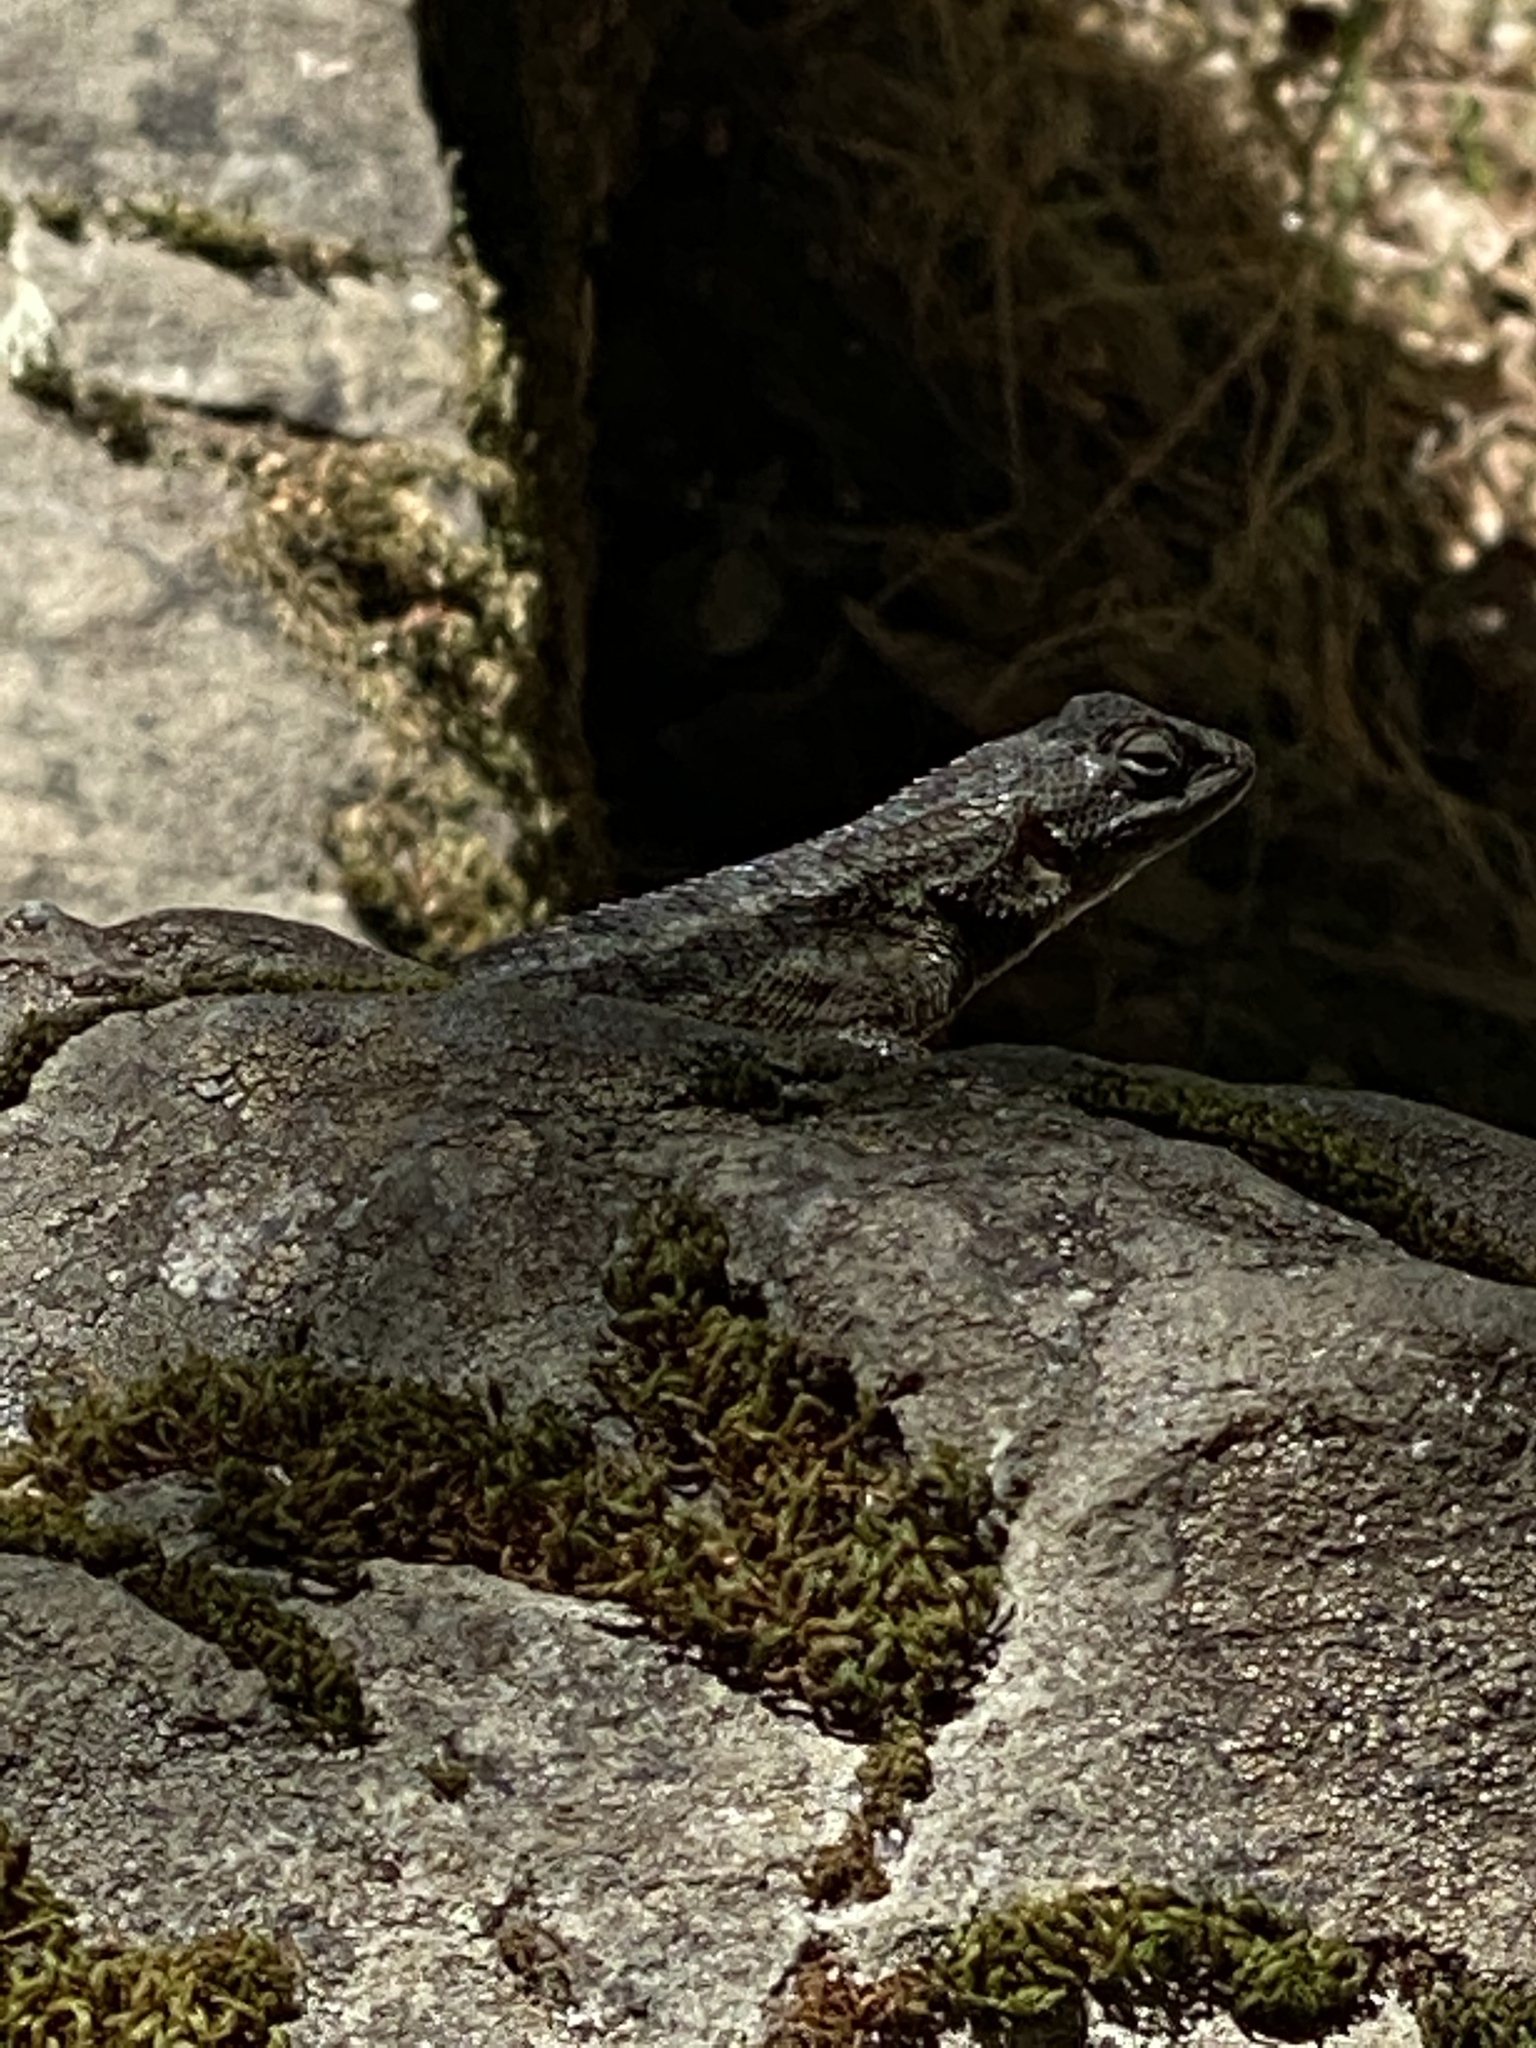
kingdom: Animalia
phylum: Chordata
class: Squamata
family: Phrynosomatidae
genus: Sceloporus
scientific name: Sceloporus occidentalis
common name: Western fence lizard
